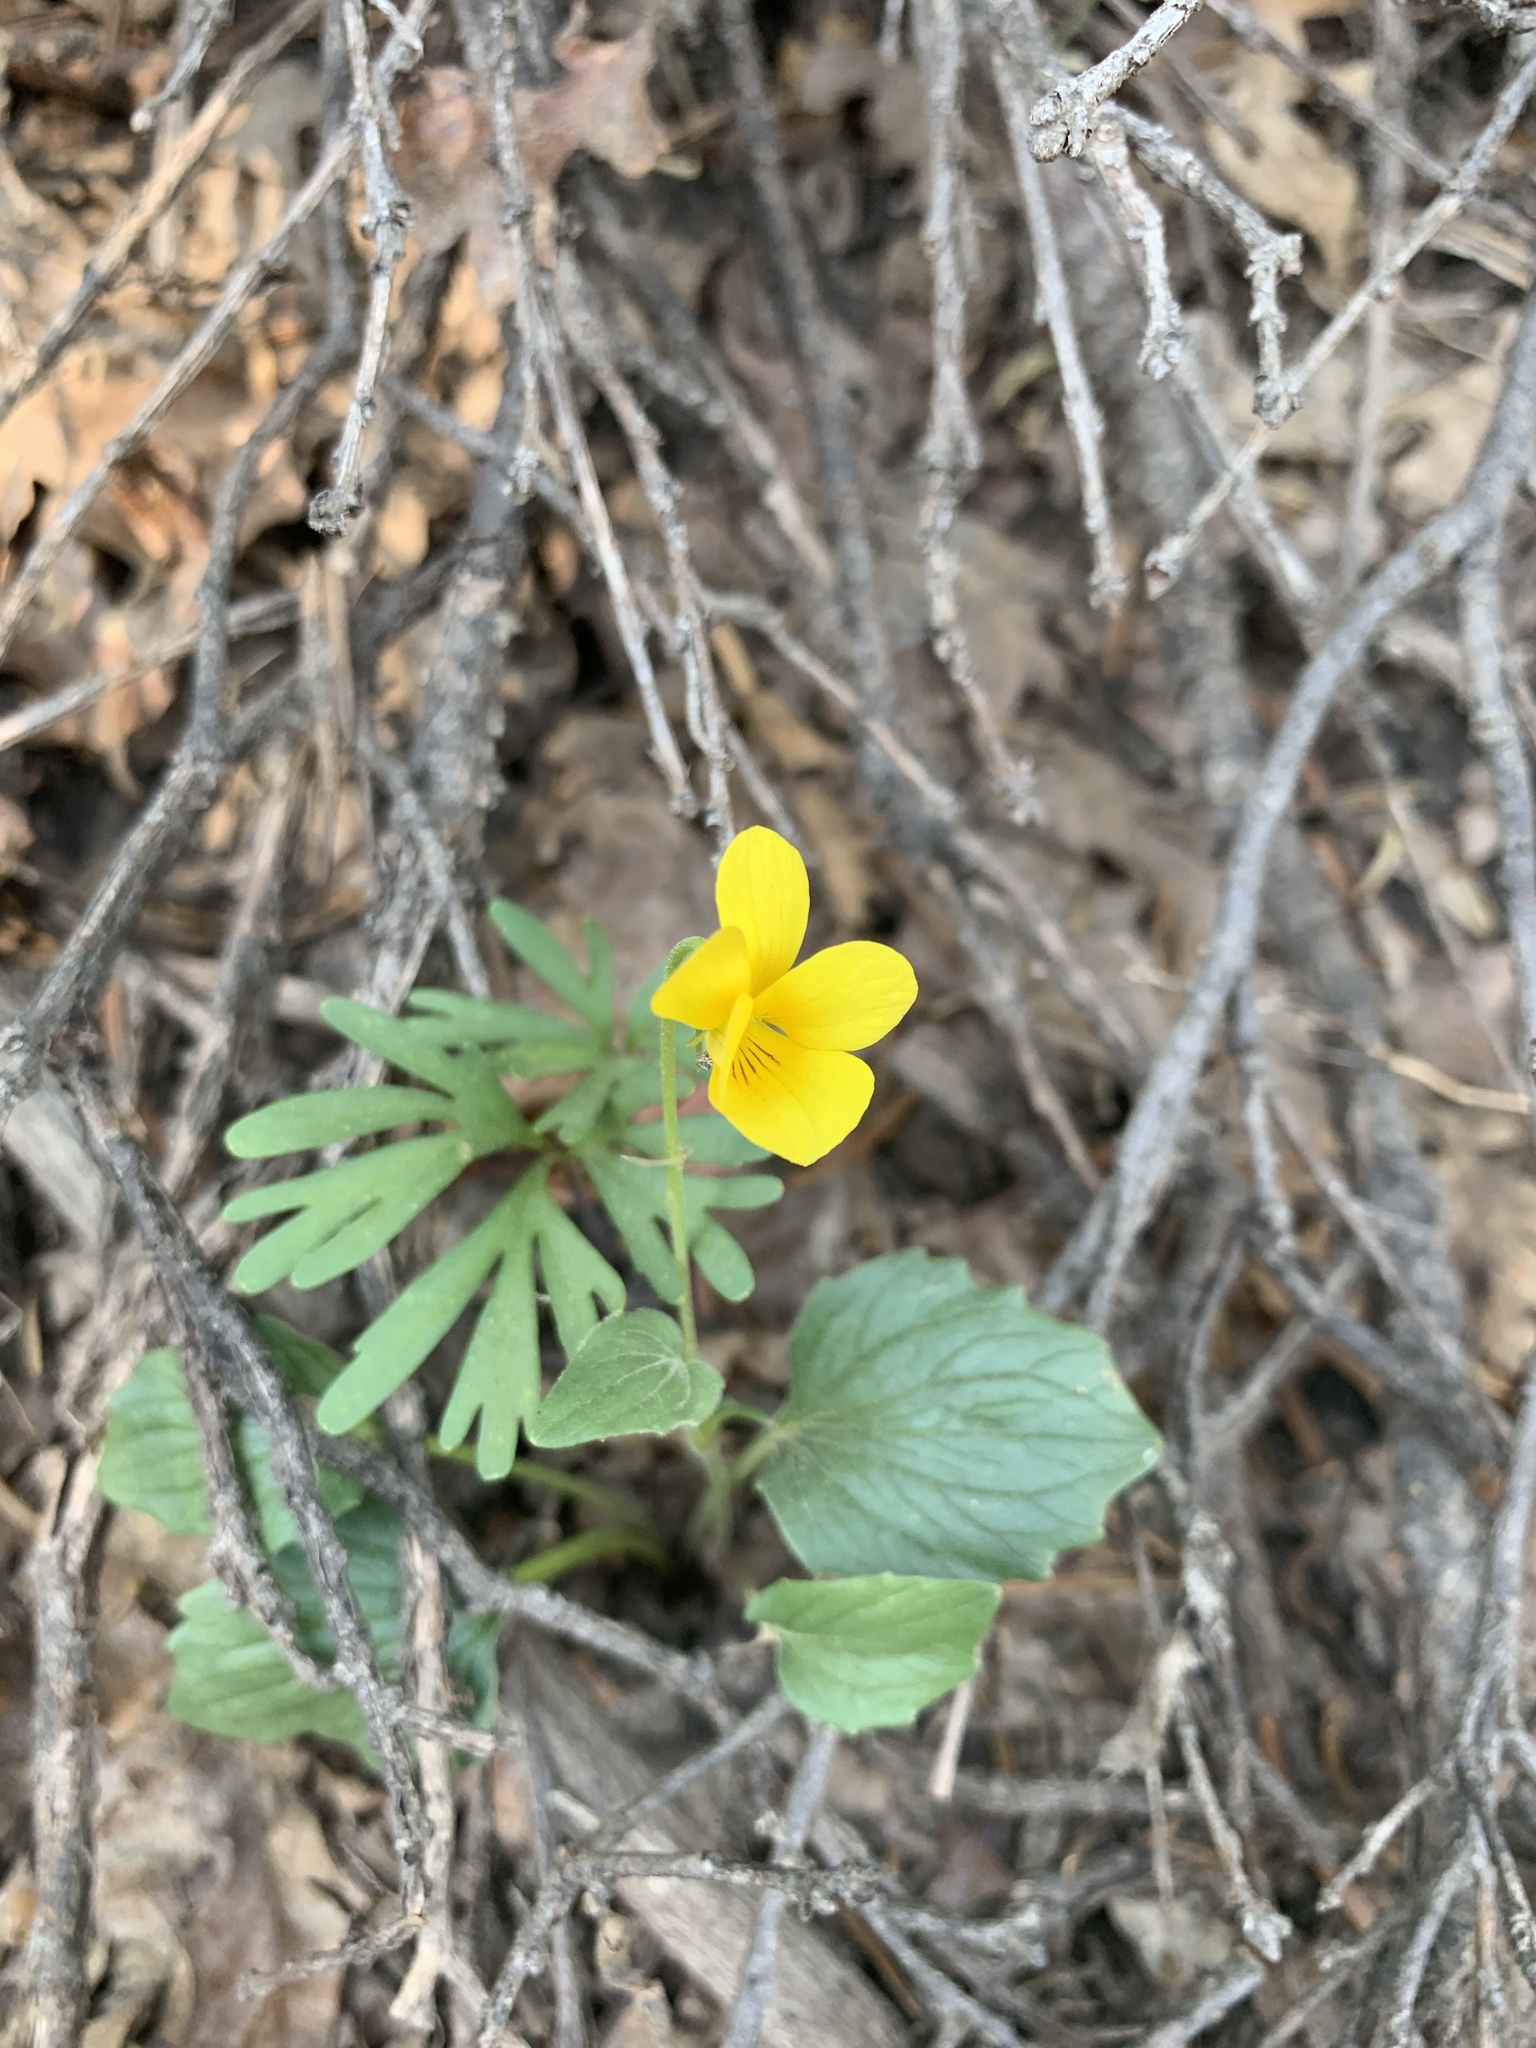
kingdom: Plantae
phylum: Tracheophyta
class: Magnoliopsida
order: Malpighiales
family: Violaceae
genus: Viola
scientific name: Viola purpurea
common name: Pine violet
